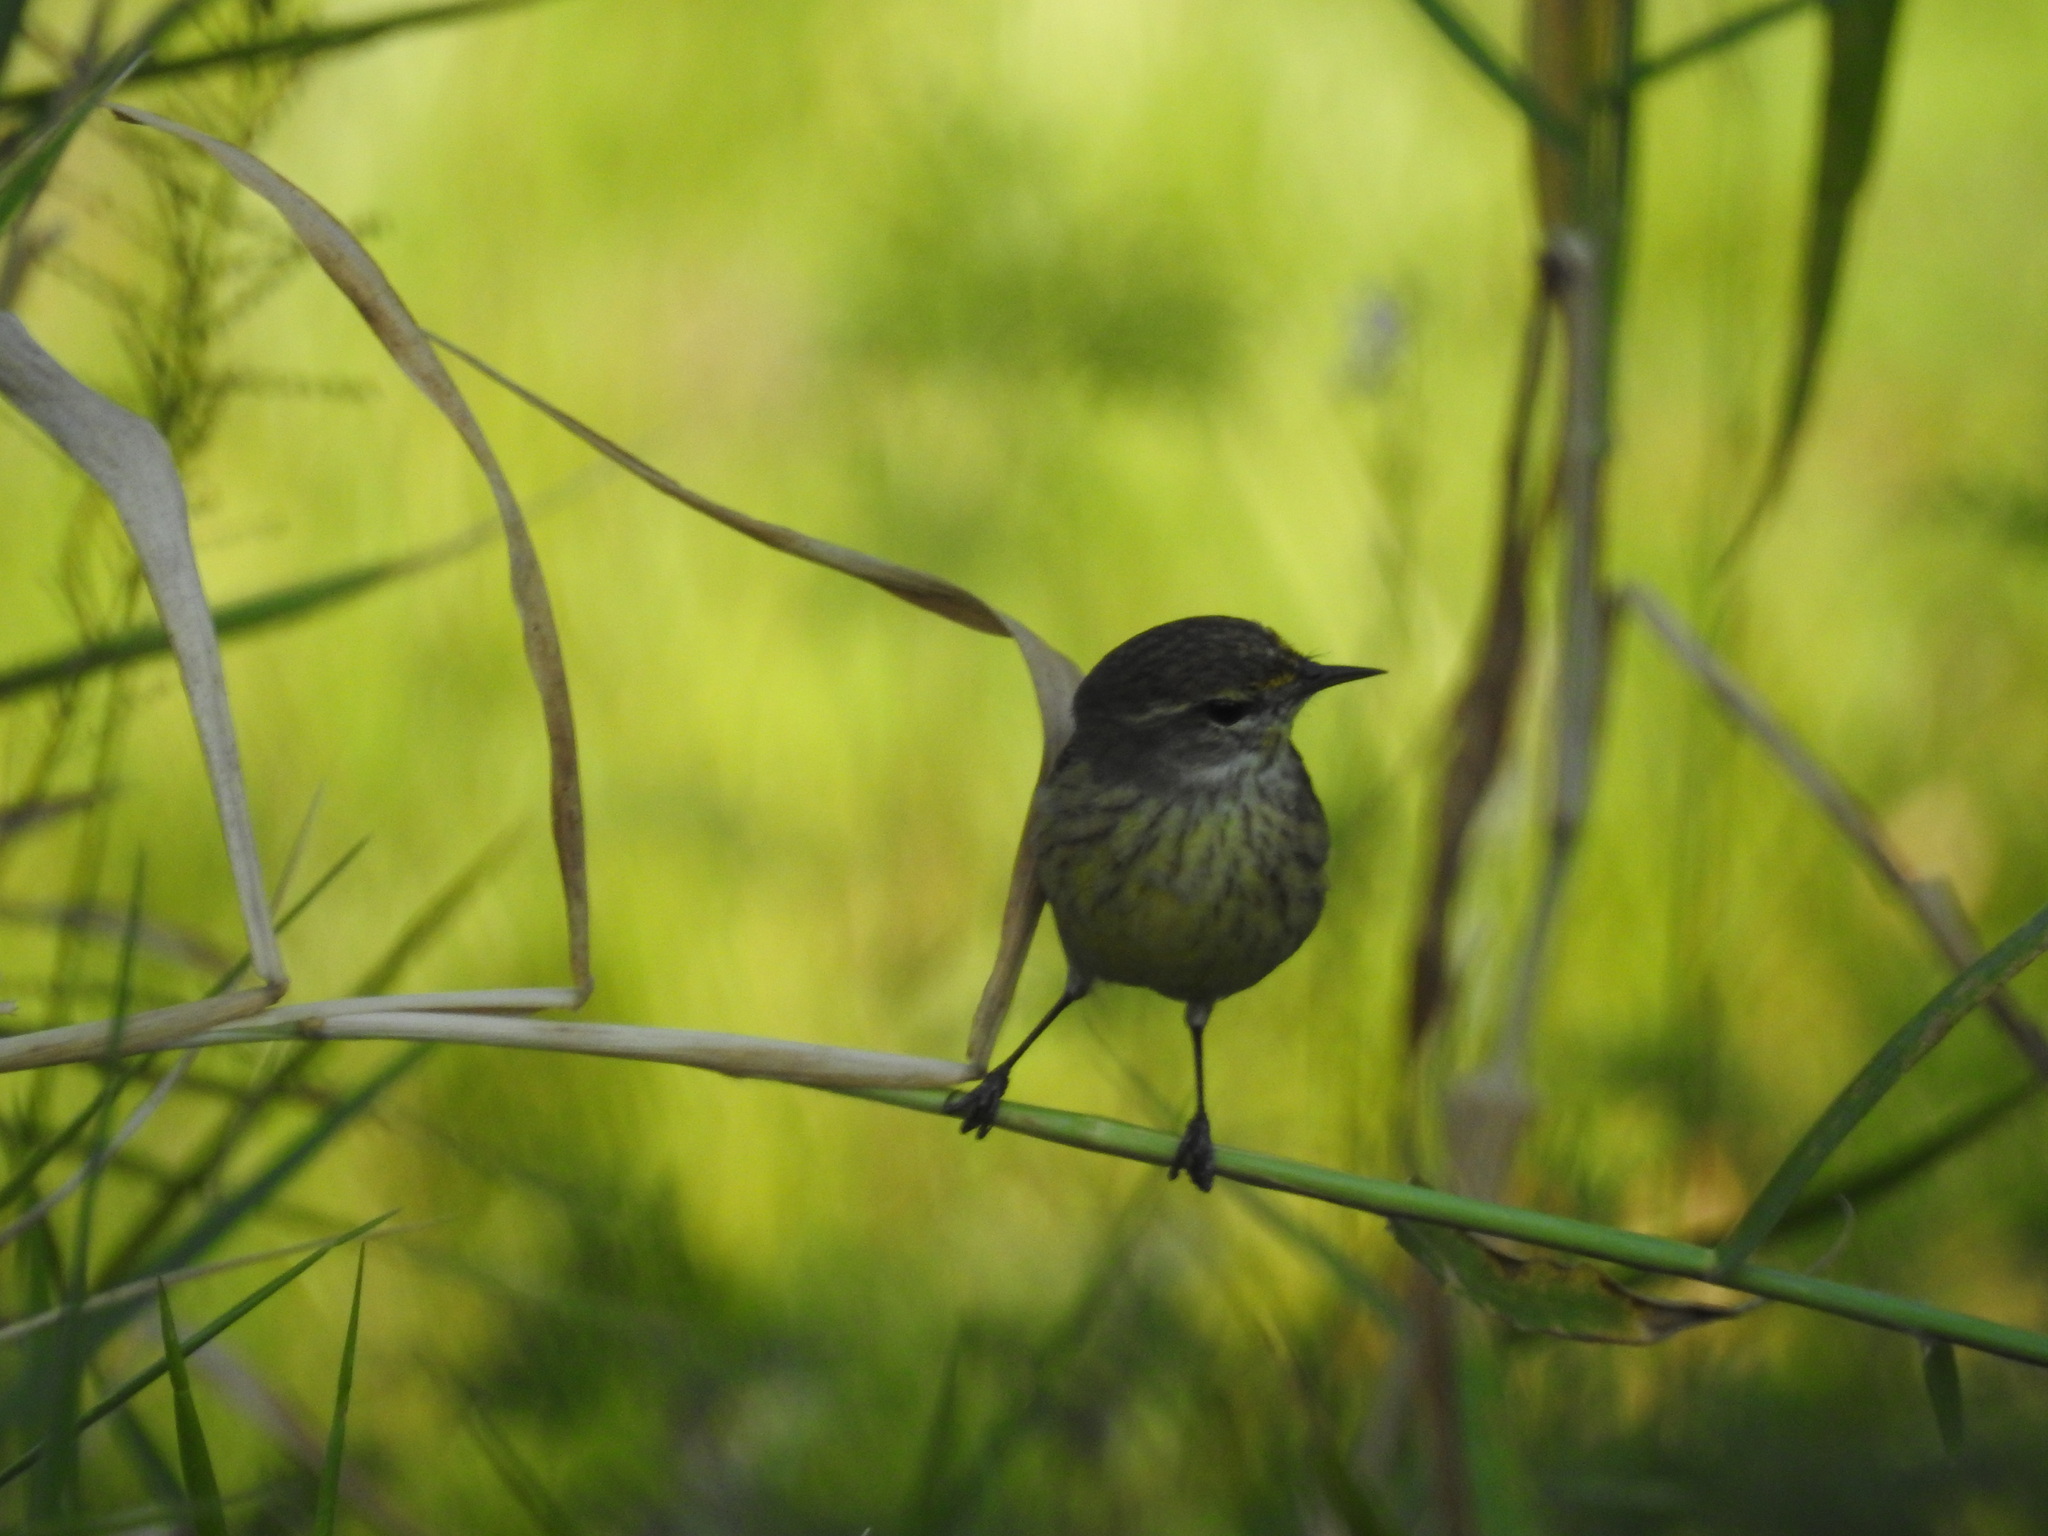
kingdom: Animalia
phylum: Chordata
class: Aves
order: Passeriformes
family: Parulidae
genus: Setophaga
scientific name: Setophaga palmarum
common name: Palm warbler
